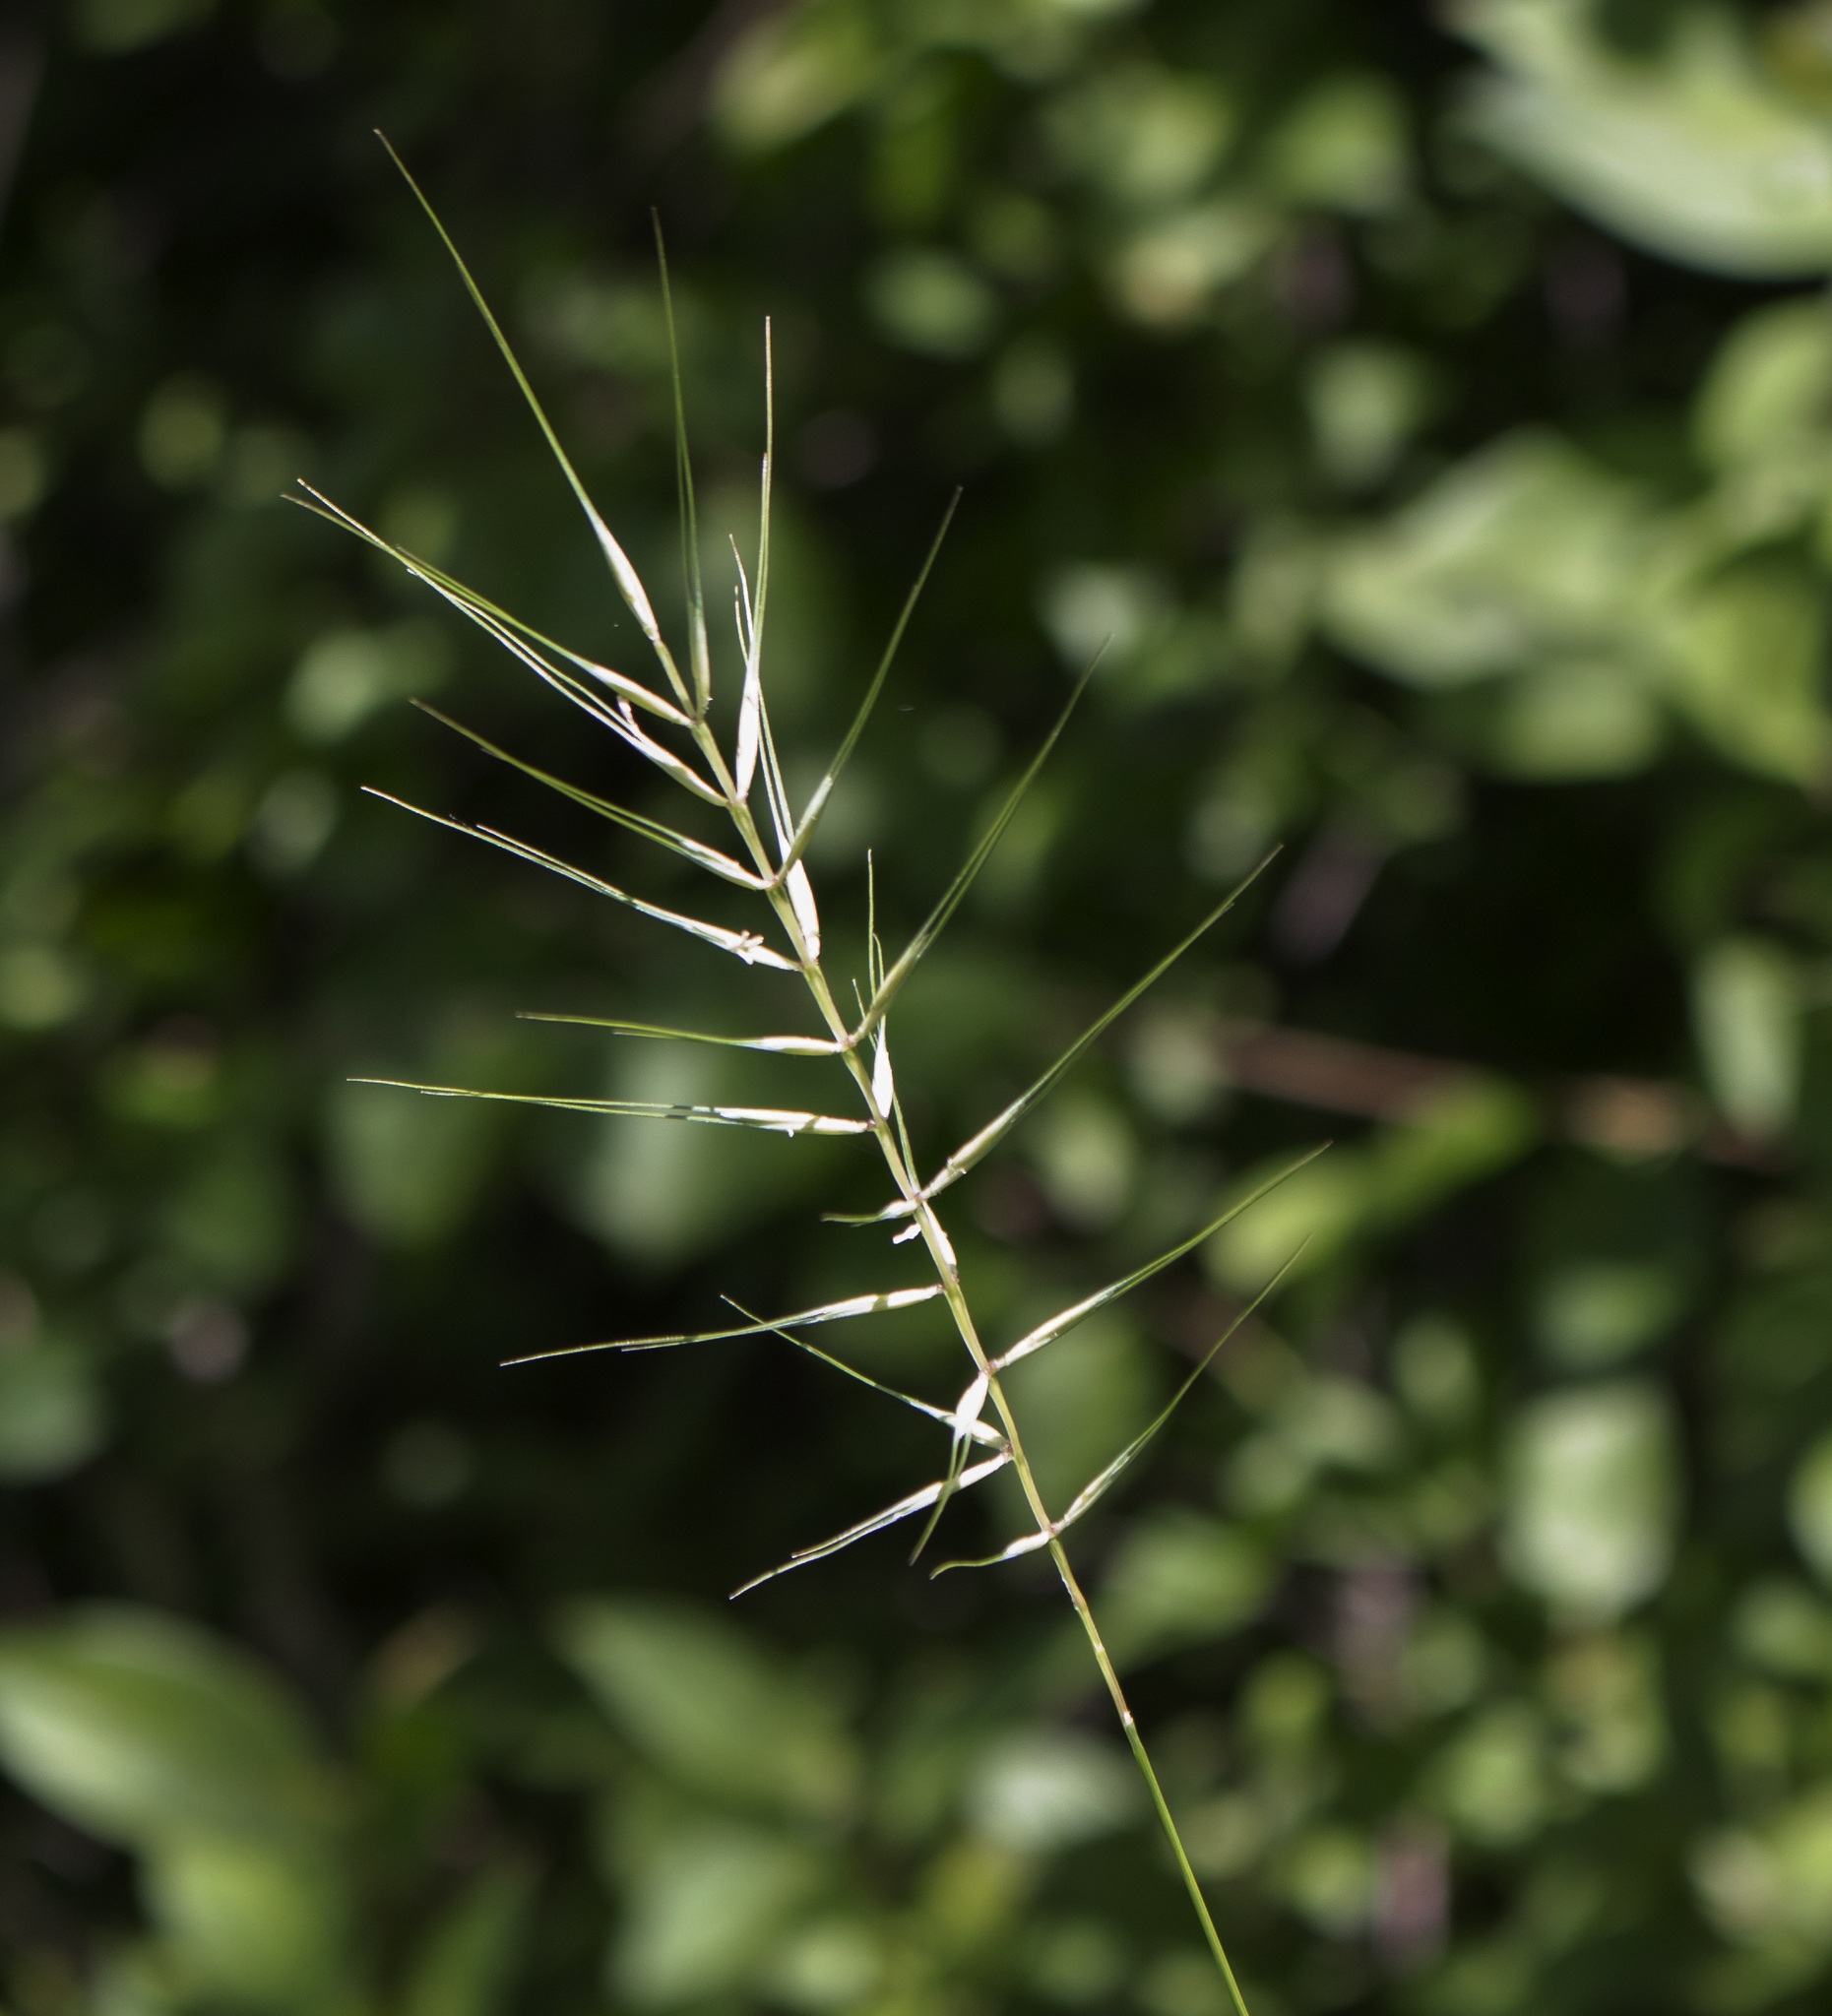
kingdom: Plantae
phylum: Tracheophyta
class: Liliopsida
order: Poales
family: Poaceae
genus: Elymus
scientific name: Elymus hystrix
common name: Bottlebrush grass
